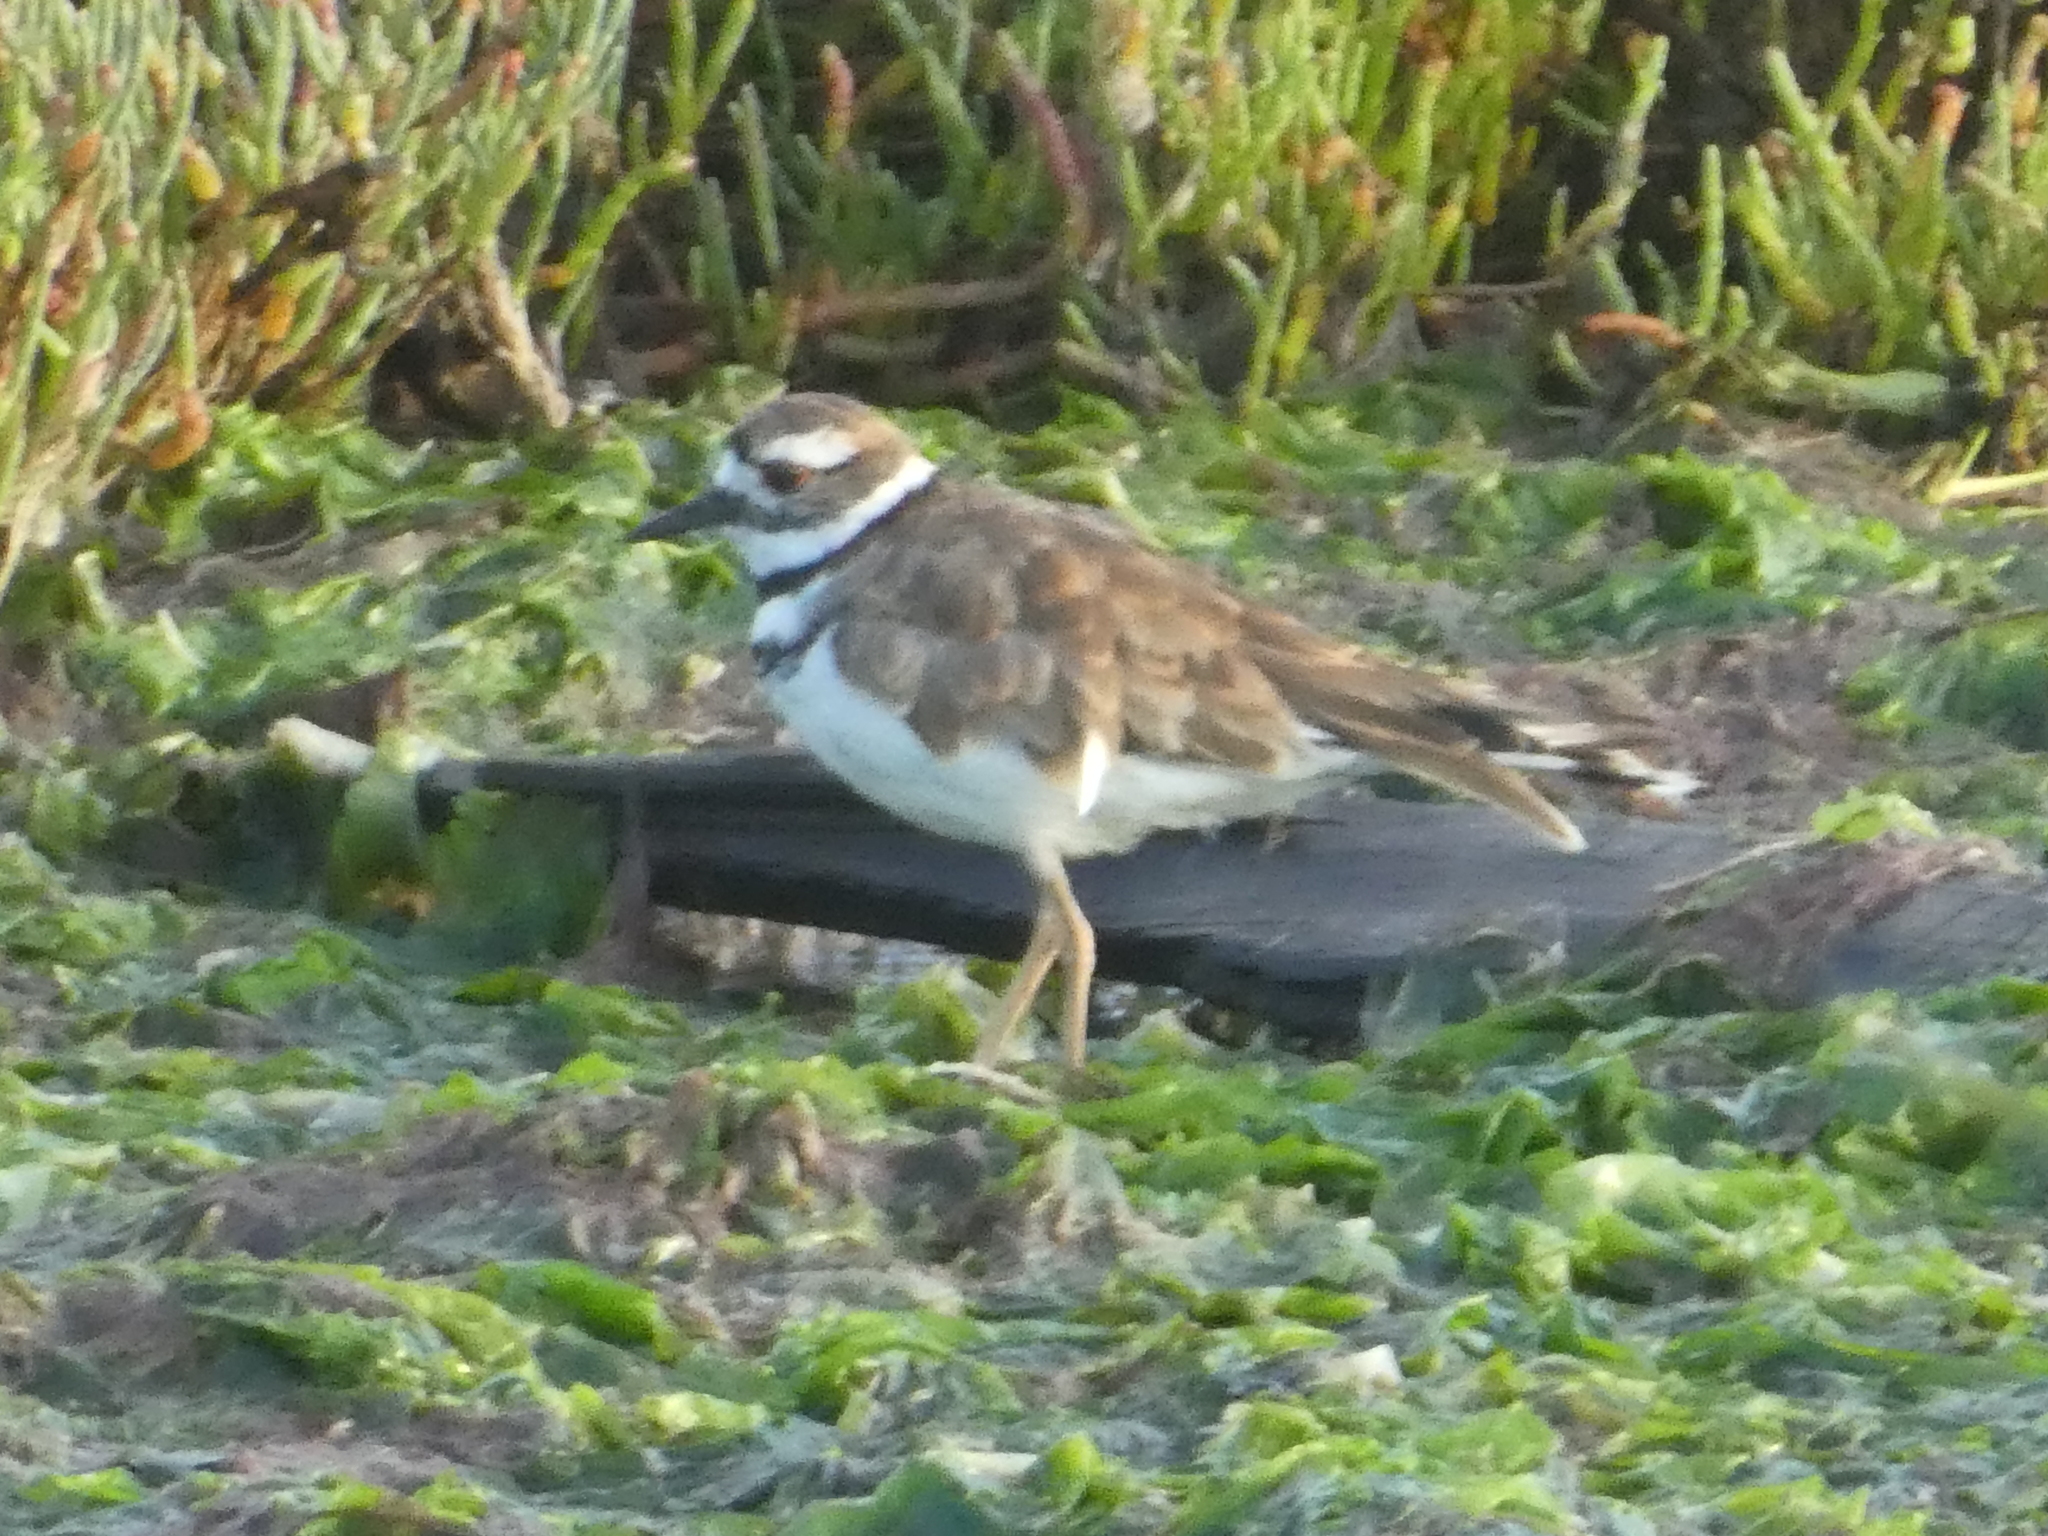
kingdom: Animalia
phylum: Chordata
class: Aves
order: Charadriiformes
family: Charadriidae
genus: Charadrius
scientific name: Charadrius vociferus
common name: Killdeer
